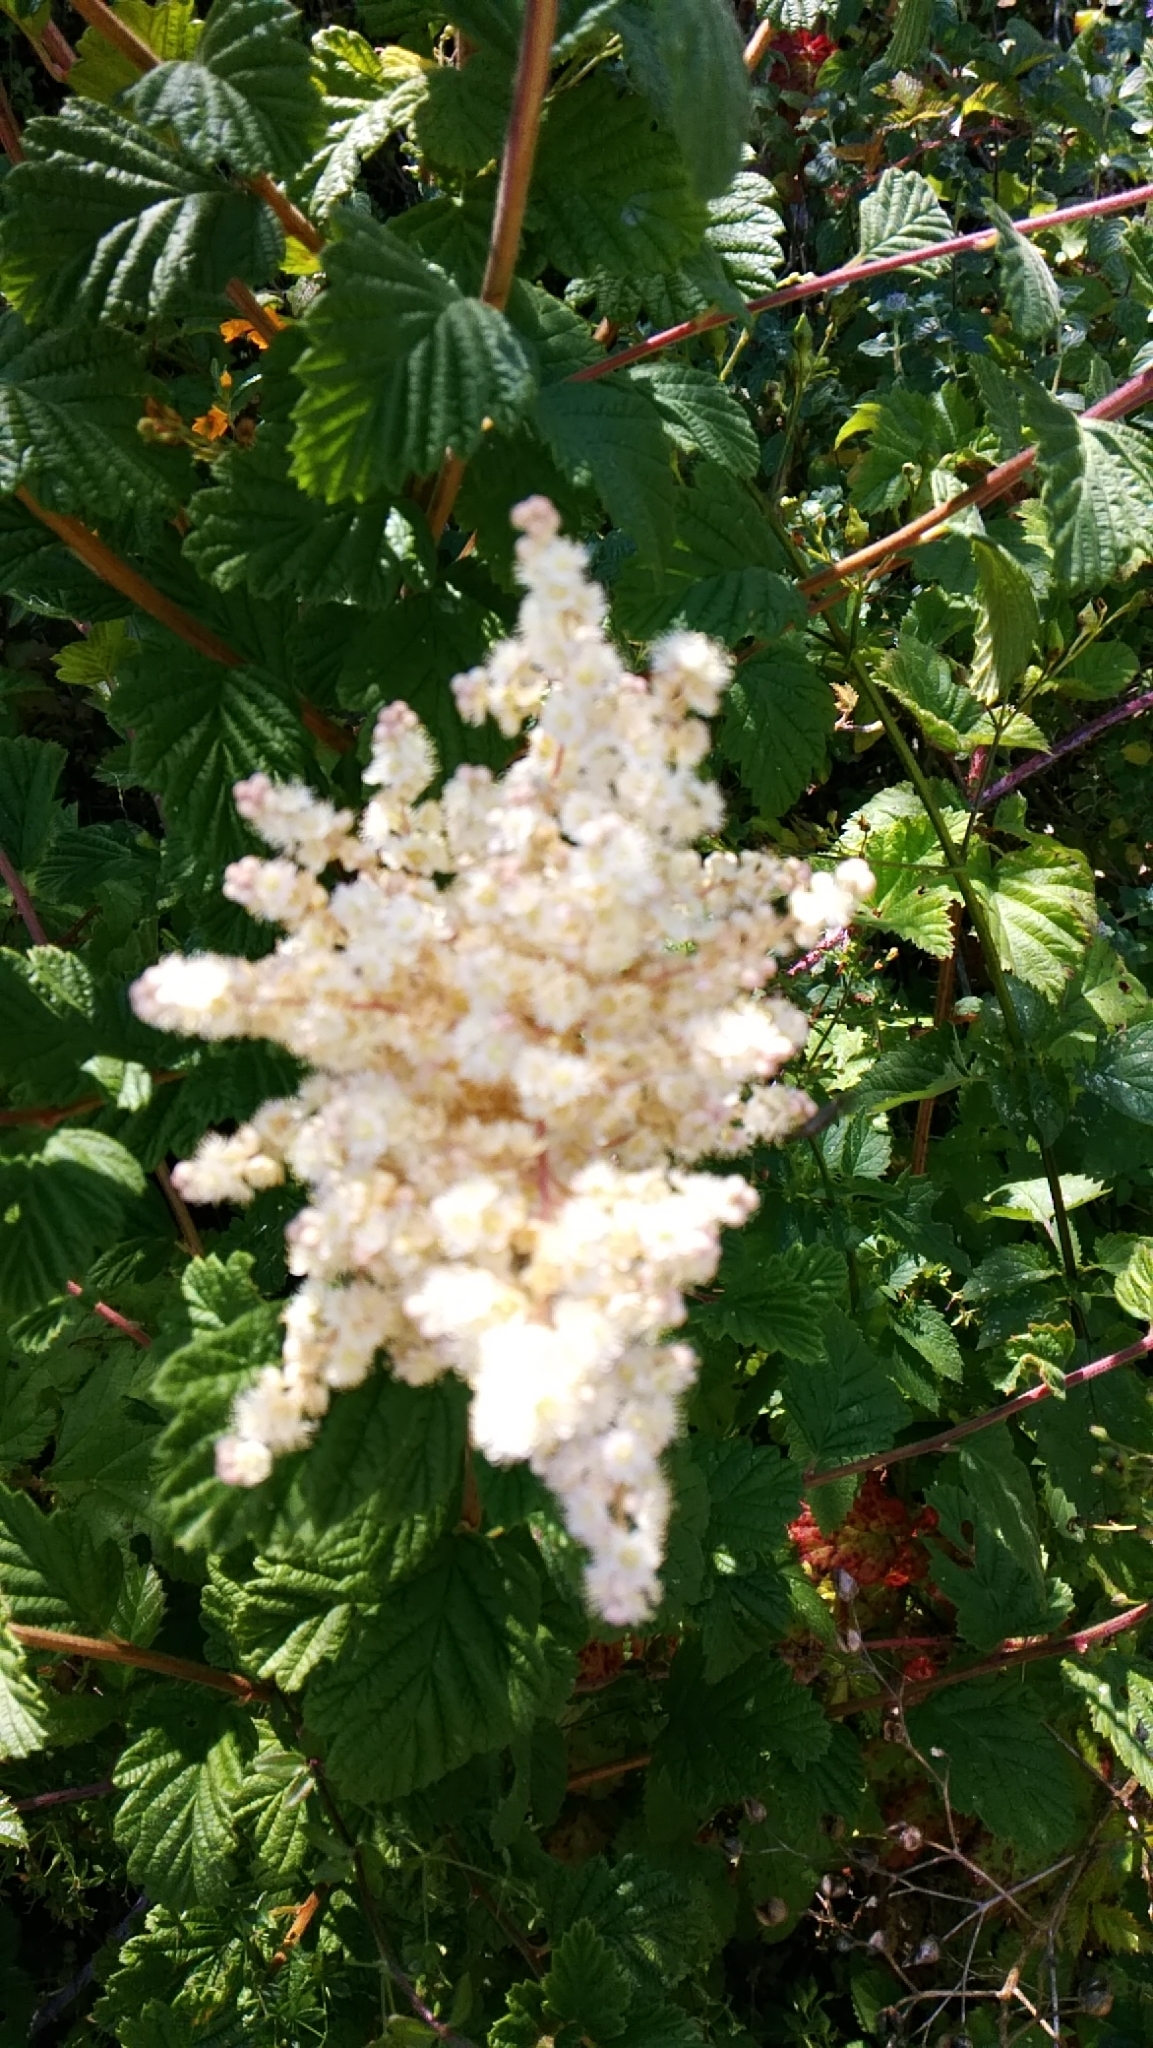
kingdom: Plantae
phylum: Tracheophyta
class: Magnoliopsida
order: Rosales
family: Rosaceae
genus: Holodiscus
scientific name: Holodiscus discolor
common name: Oceanspray
